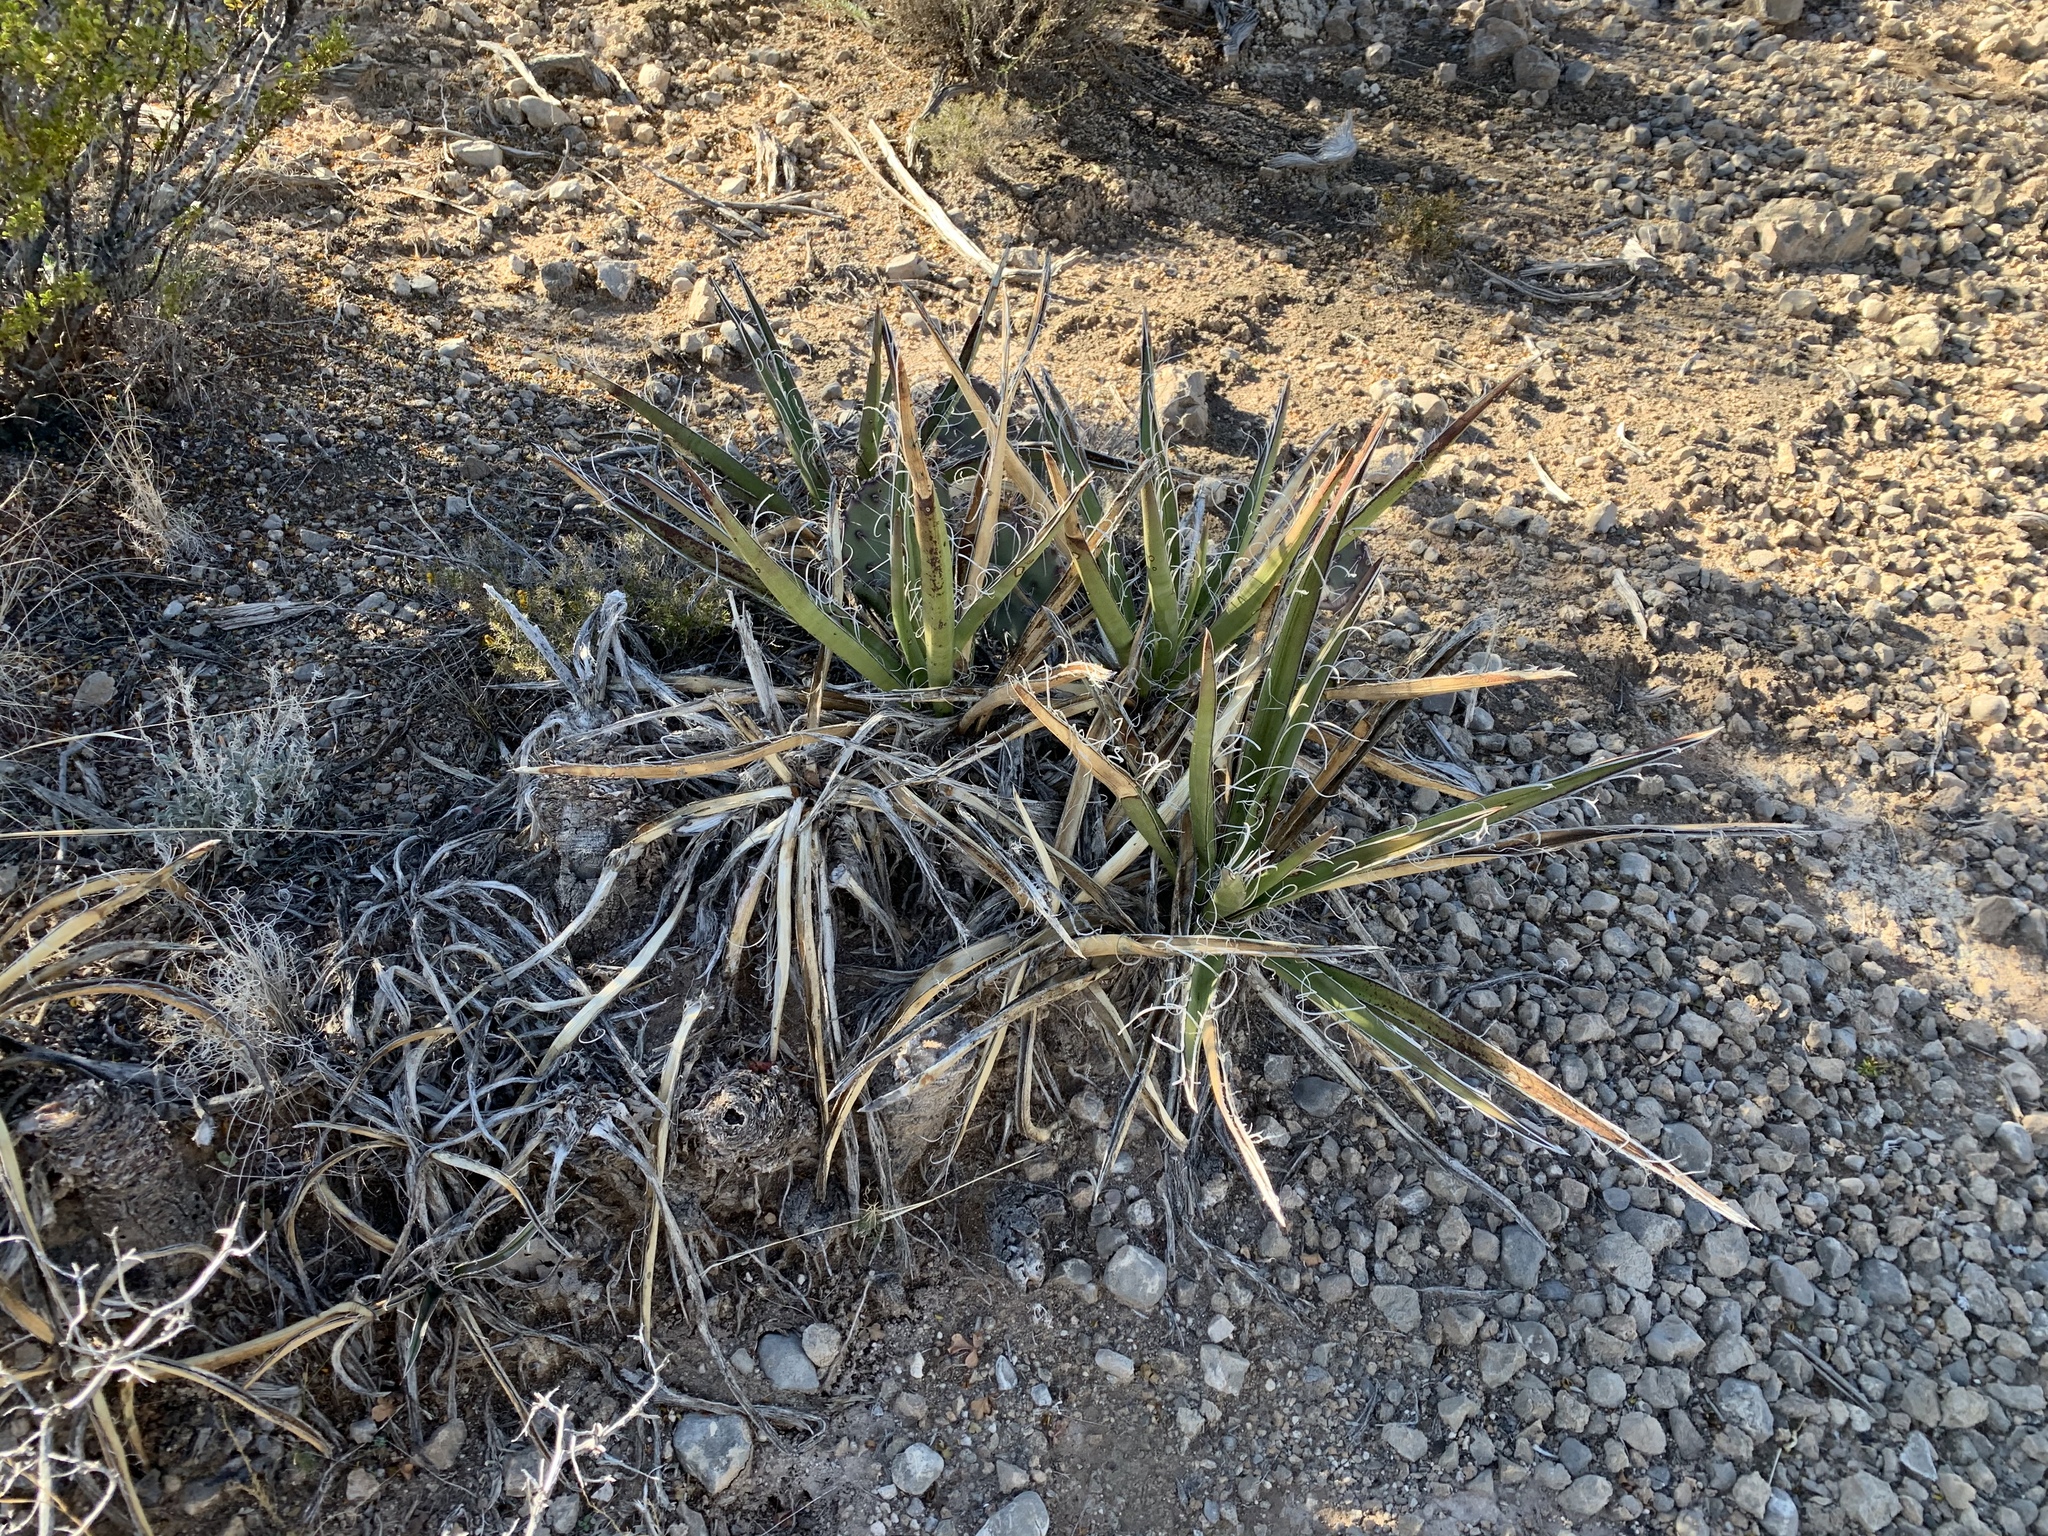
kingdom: Plantae
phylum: Tracheophyta
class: Liliopsida
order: Asparagales
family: Asparagaceae
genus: Yucca
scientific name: Yucca baccata
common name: Banana yucca
